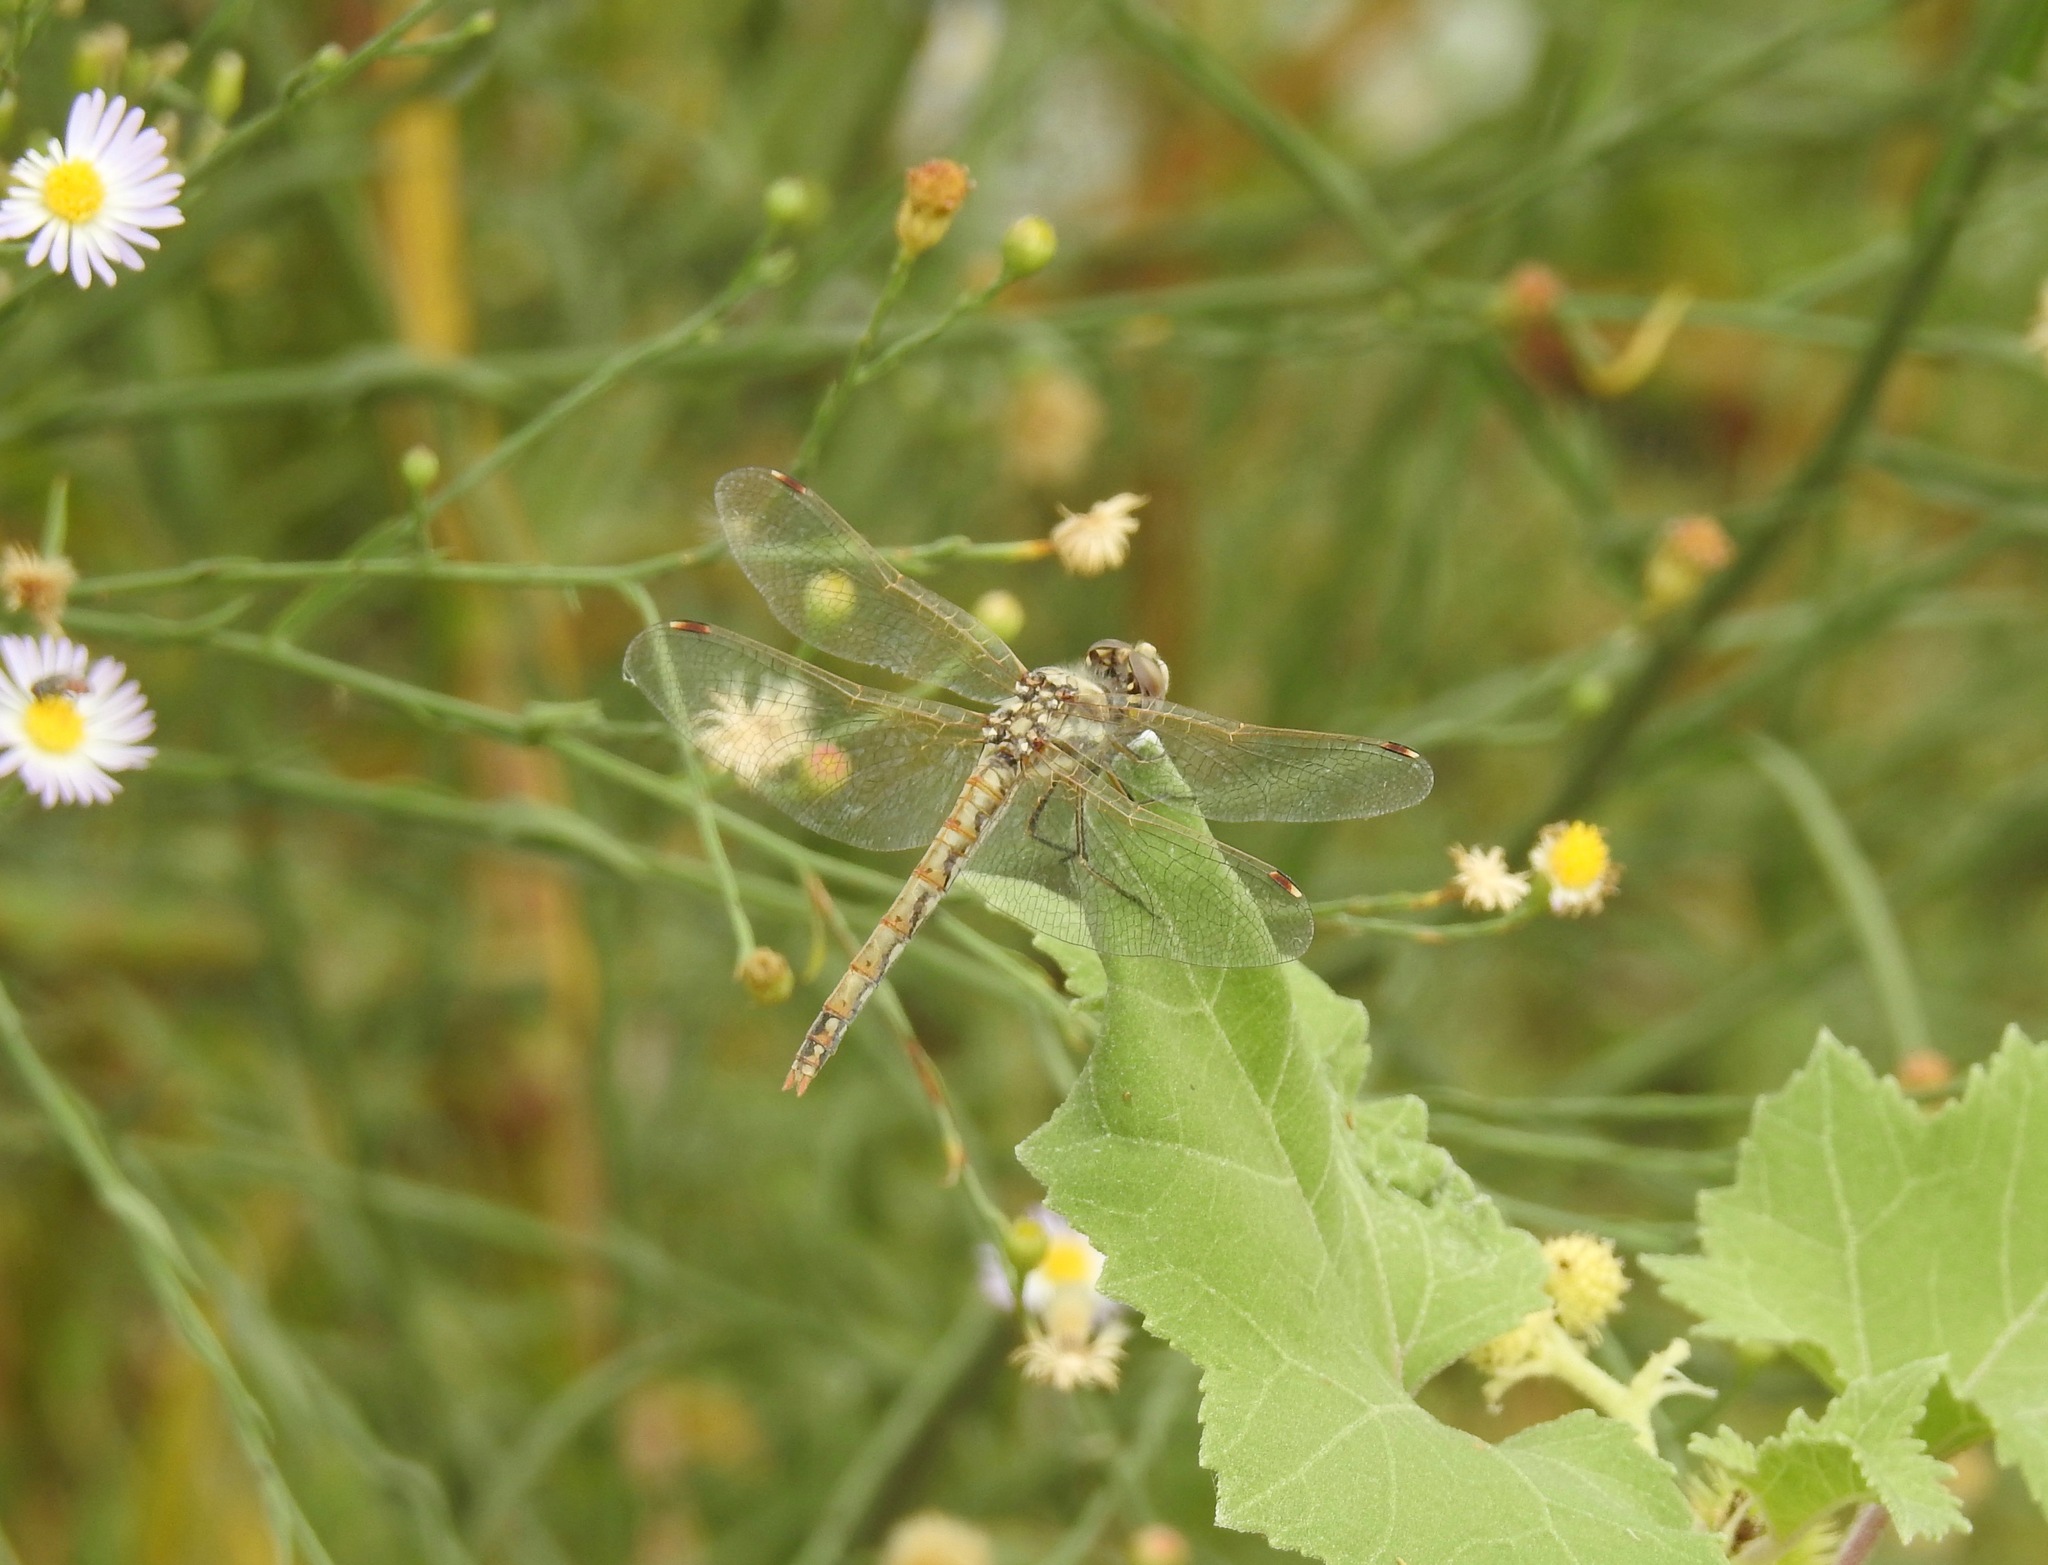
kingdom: Animalia
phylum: Arthropoda
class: Insecta
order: Odonata
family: Libellulidae
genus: Sympetrum
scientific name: Sympetrum corruptum
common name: Variegated meadowhawk
